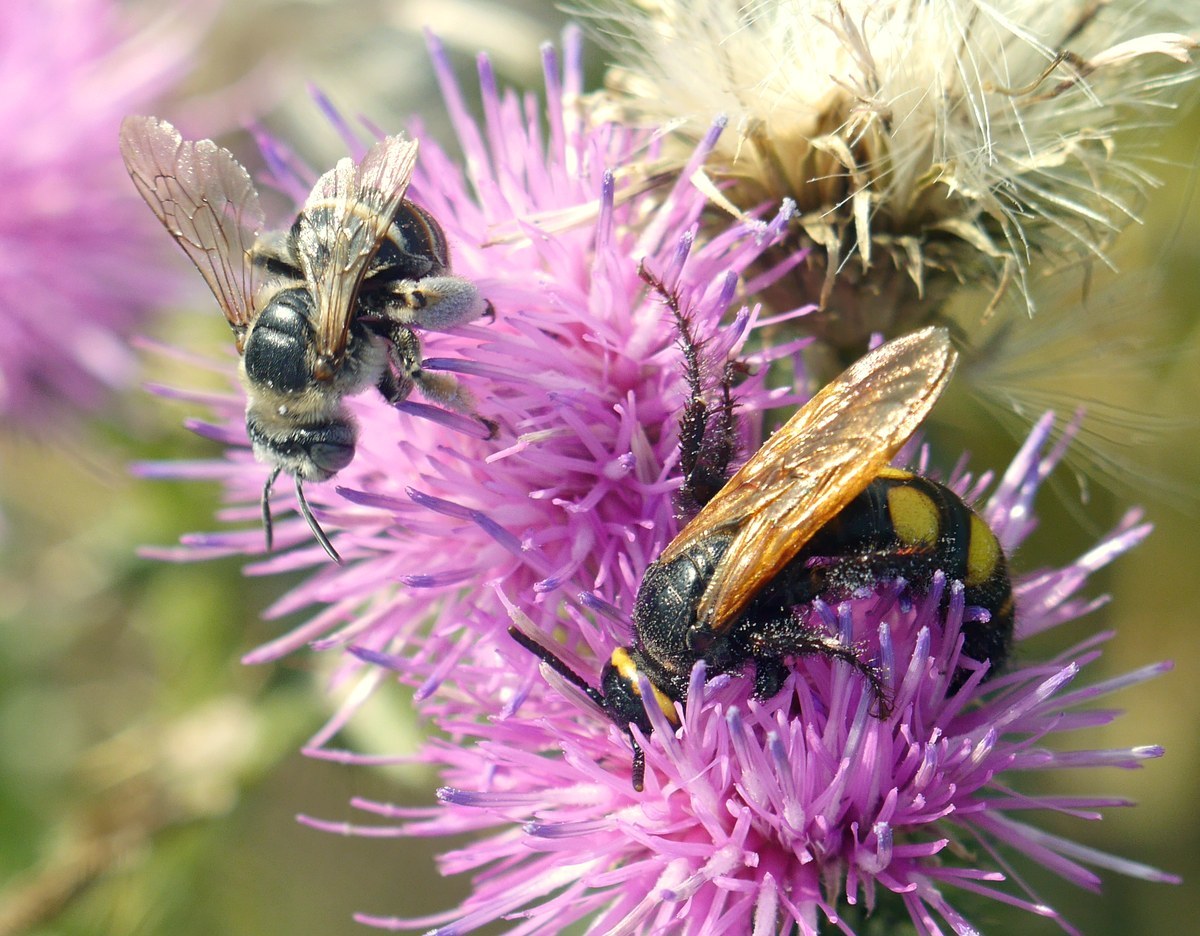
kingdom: Animalia
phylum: Arthropoda
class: Insecta
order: Hymenoptera
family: Scoliidae
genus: Scolia
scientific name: Scolia fuciformis
